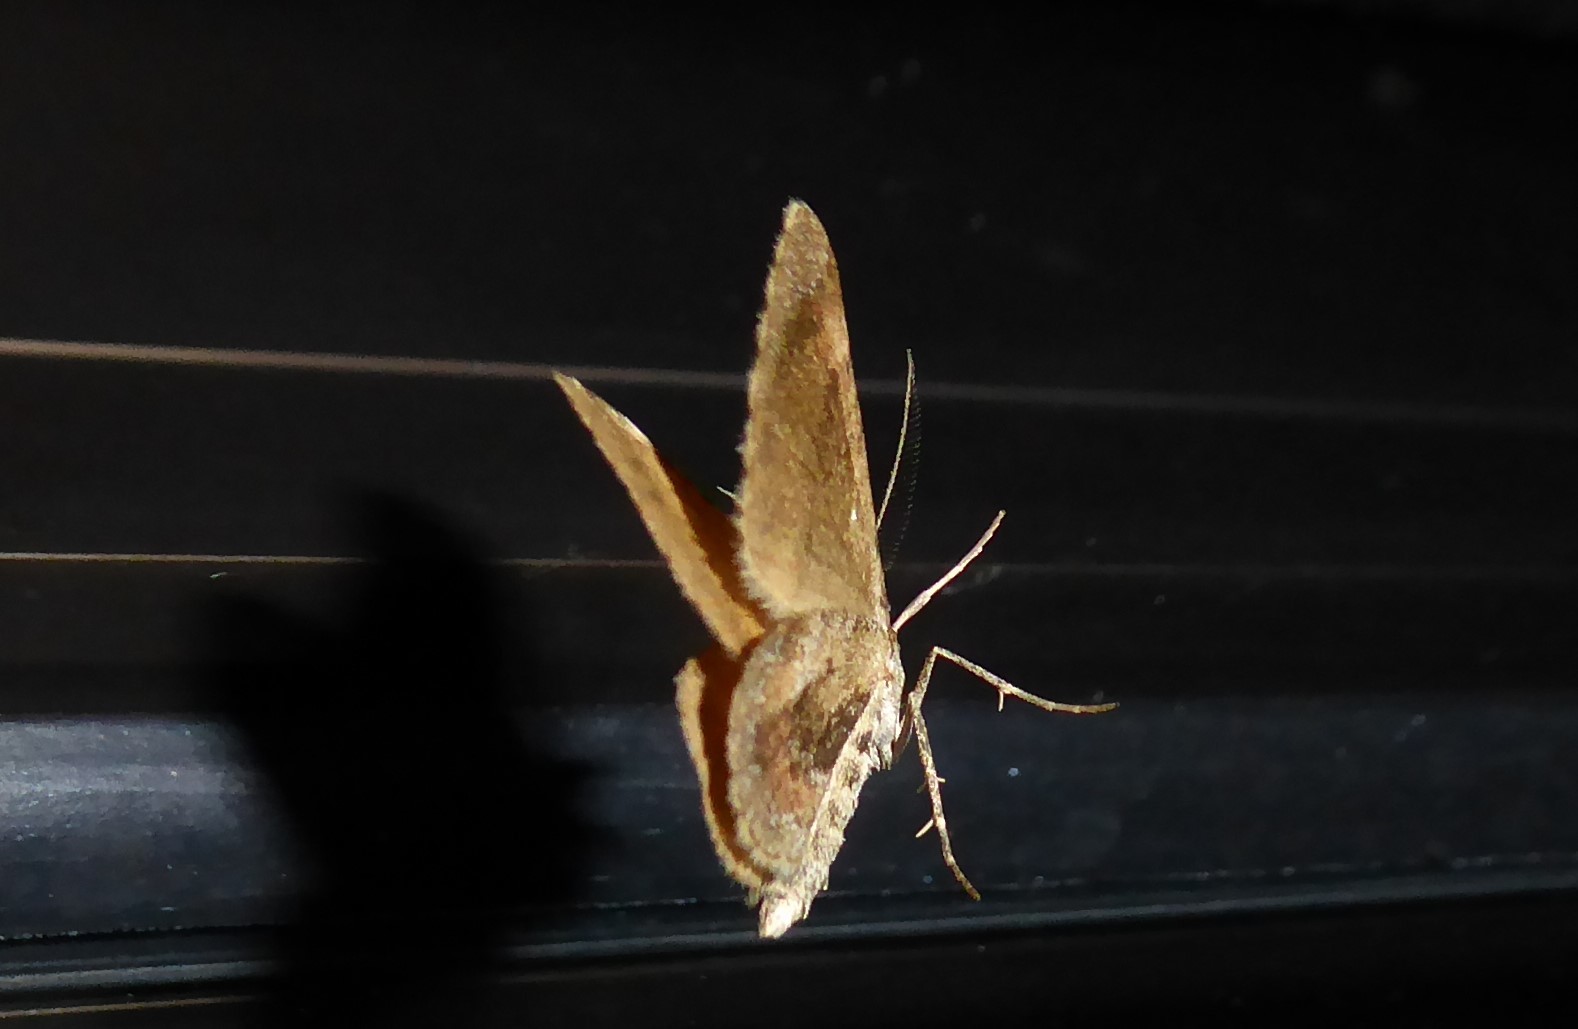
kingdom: Animalia
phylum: Arthropoda
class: Insecta
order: Lepidoptera
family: Geometridae
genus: Asaphodes
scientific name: Asaphodes aegrota
